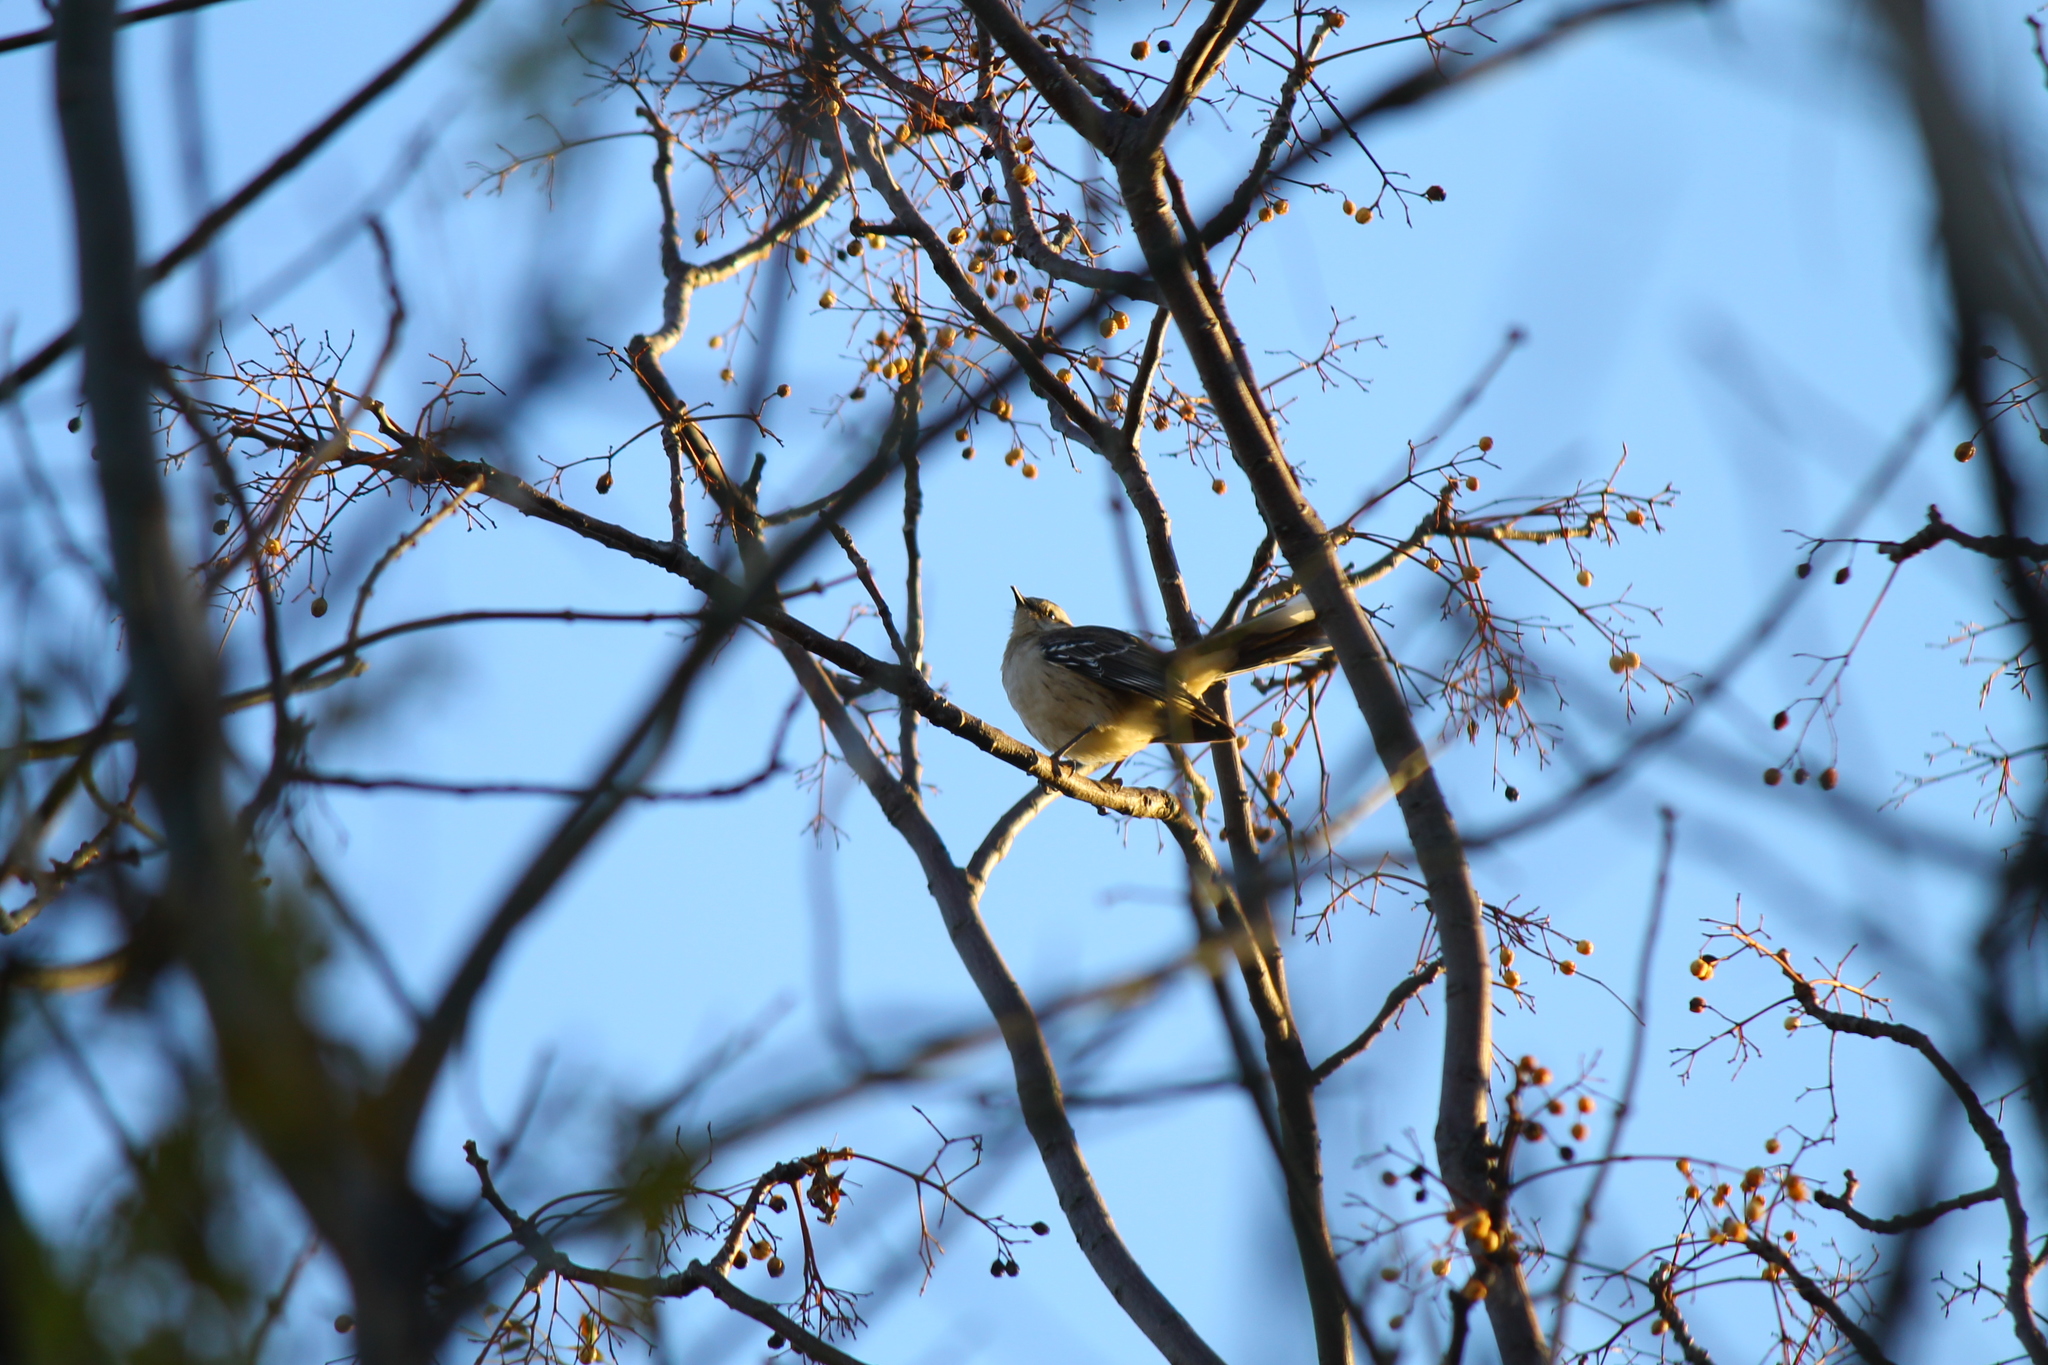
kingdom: Animalia
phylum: Chordata
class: Aves
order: Passeriformes
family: Mimidae
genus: Mimus
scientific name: Mimus saturninus
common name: Chalk-browed mockingbird
